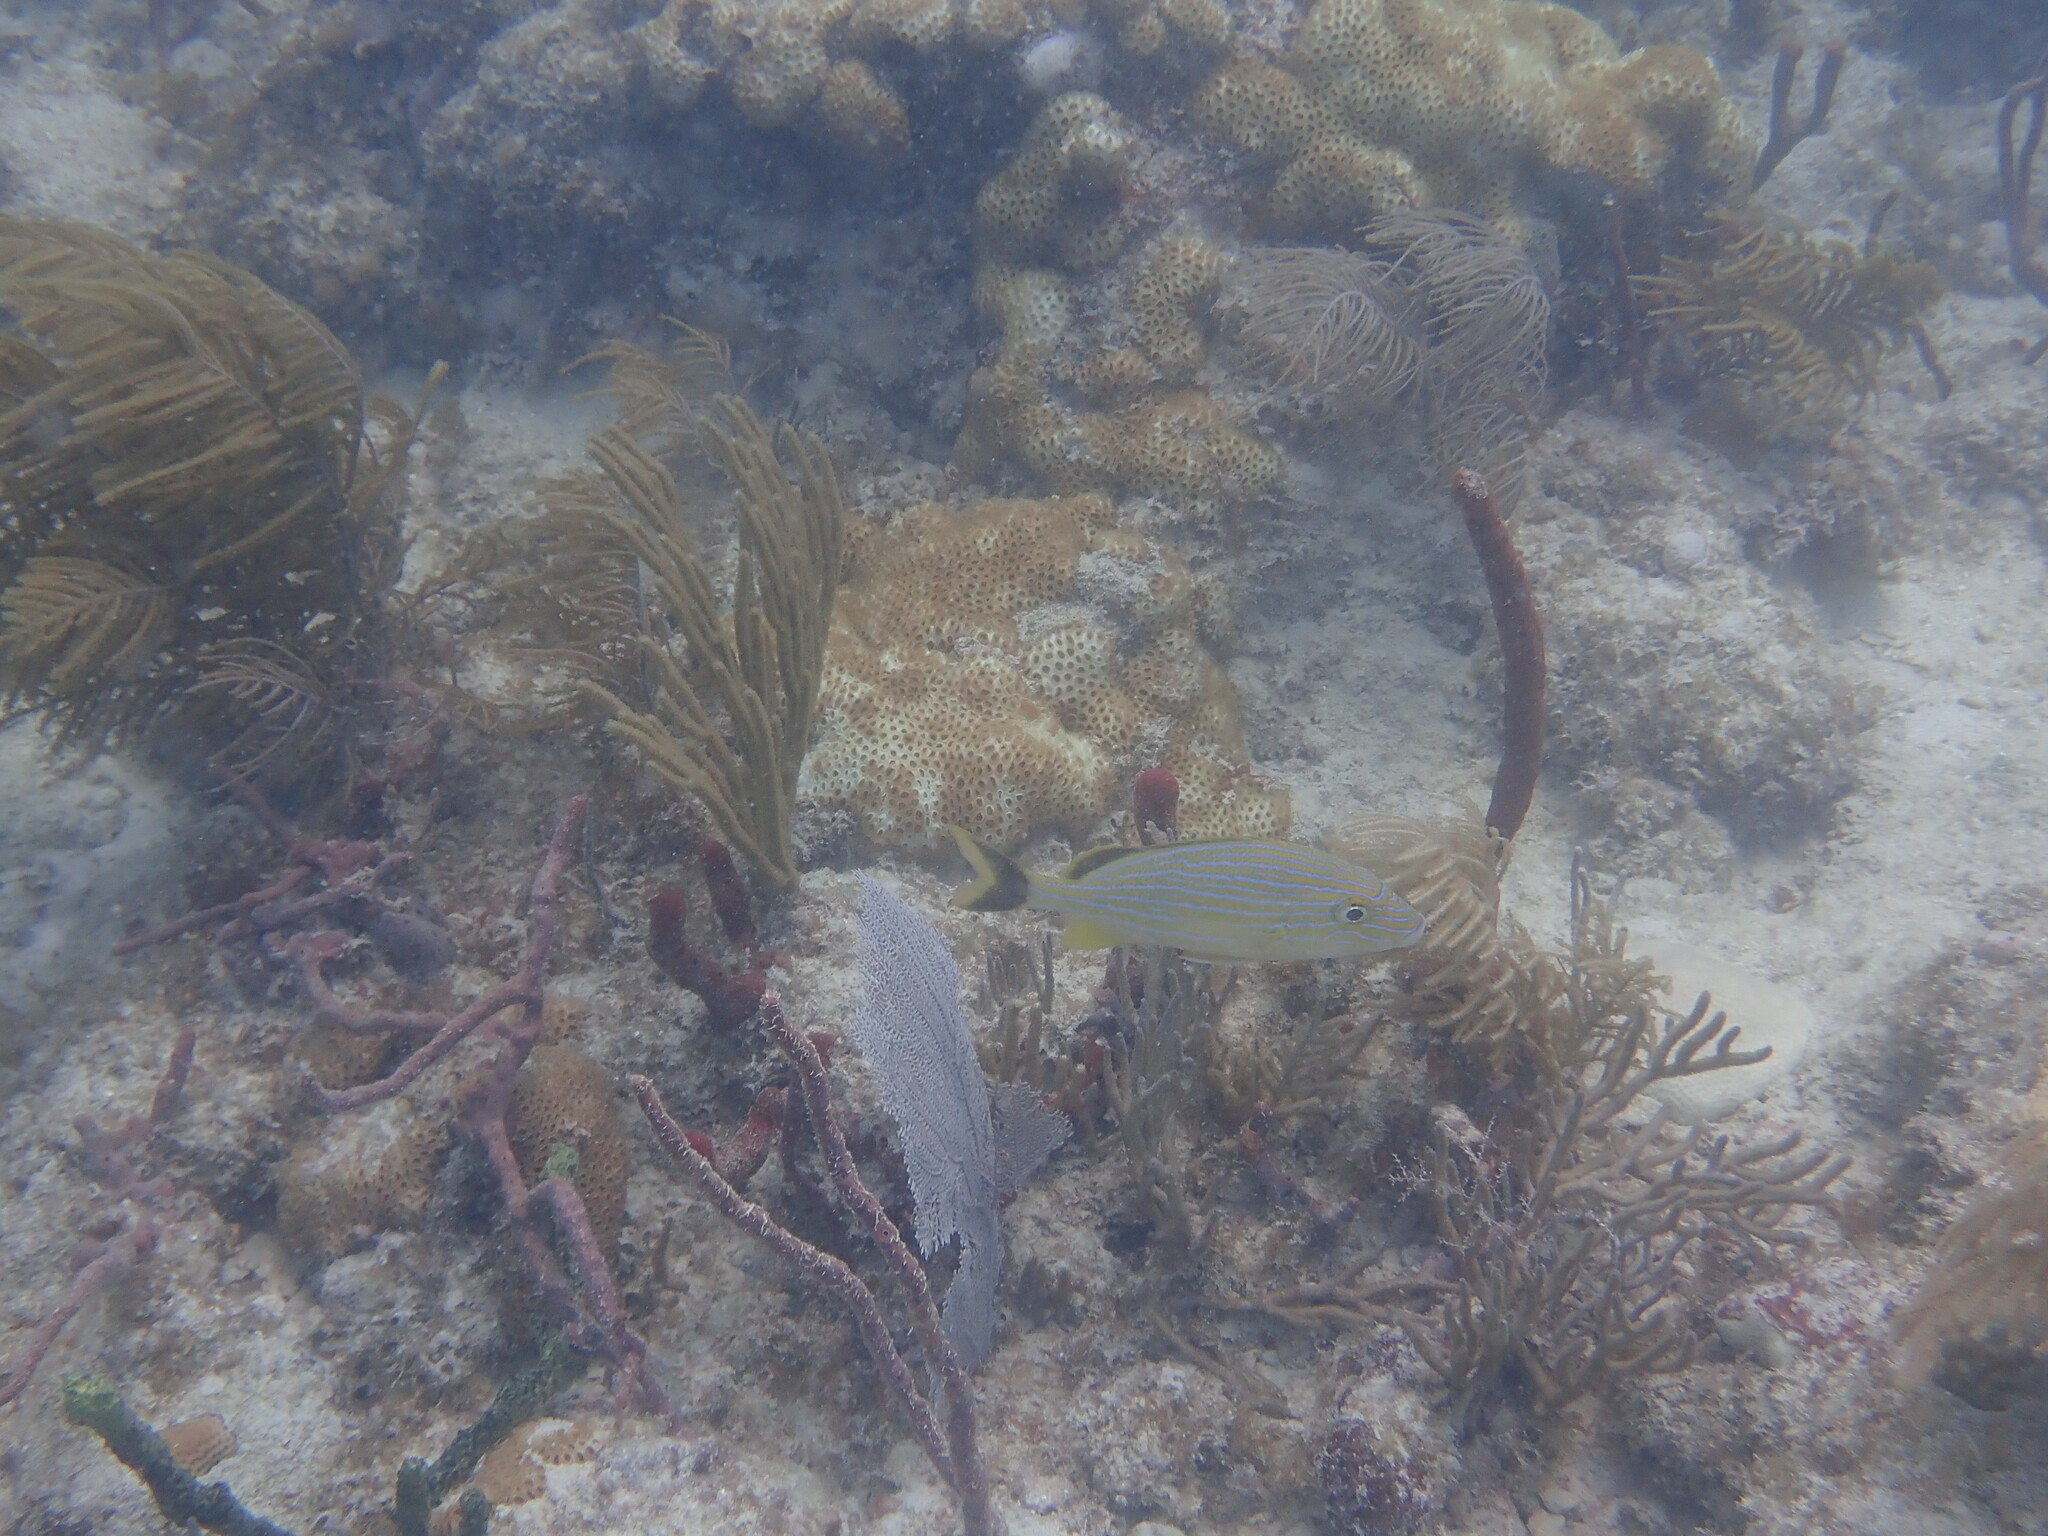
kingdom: Animalia
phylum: Chordata
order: Perciformes
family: Haemulidae
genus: Haemulon
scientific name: Haemulon sciurus
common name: Bluestriped grunt
